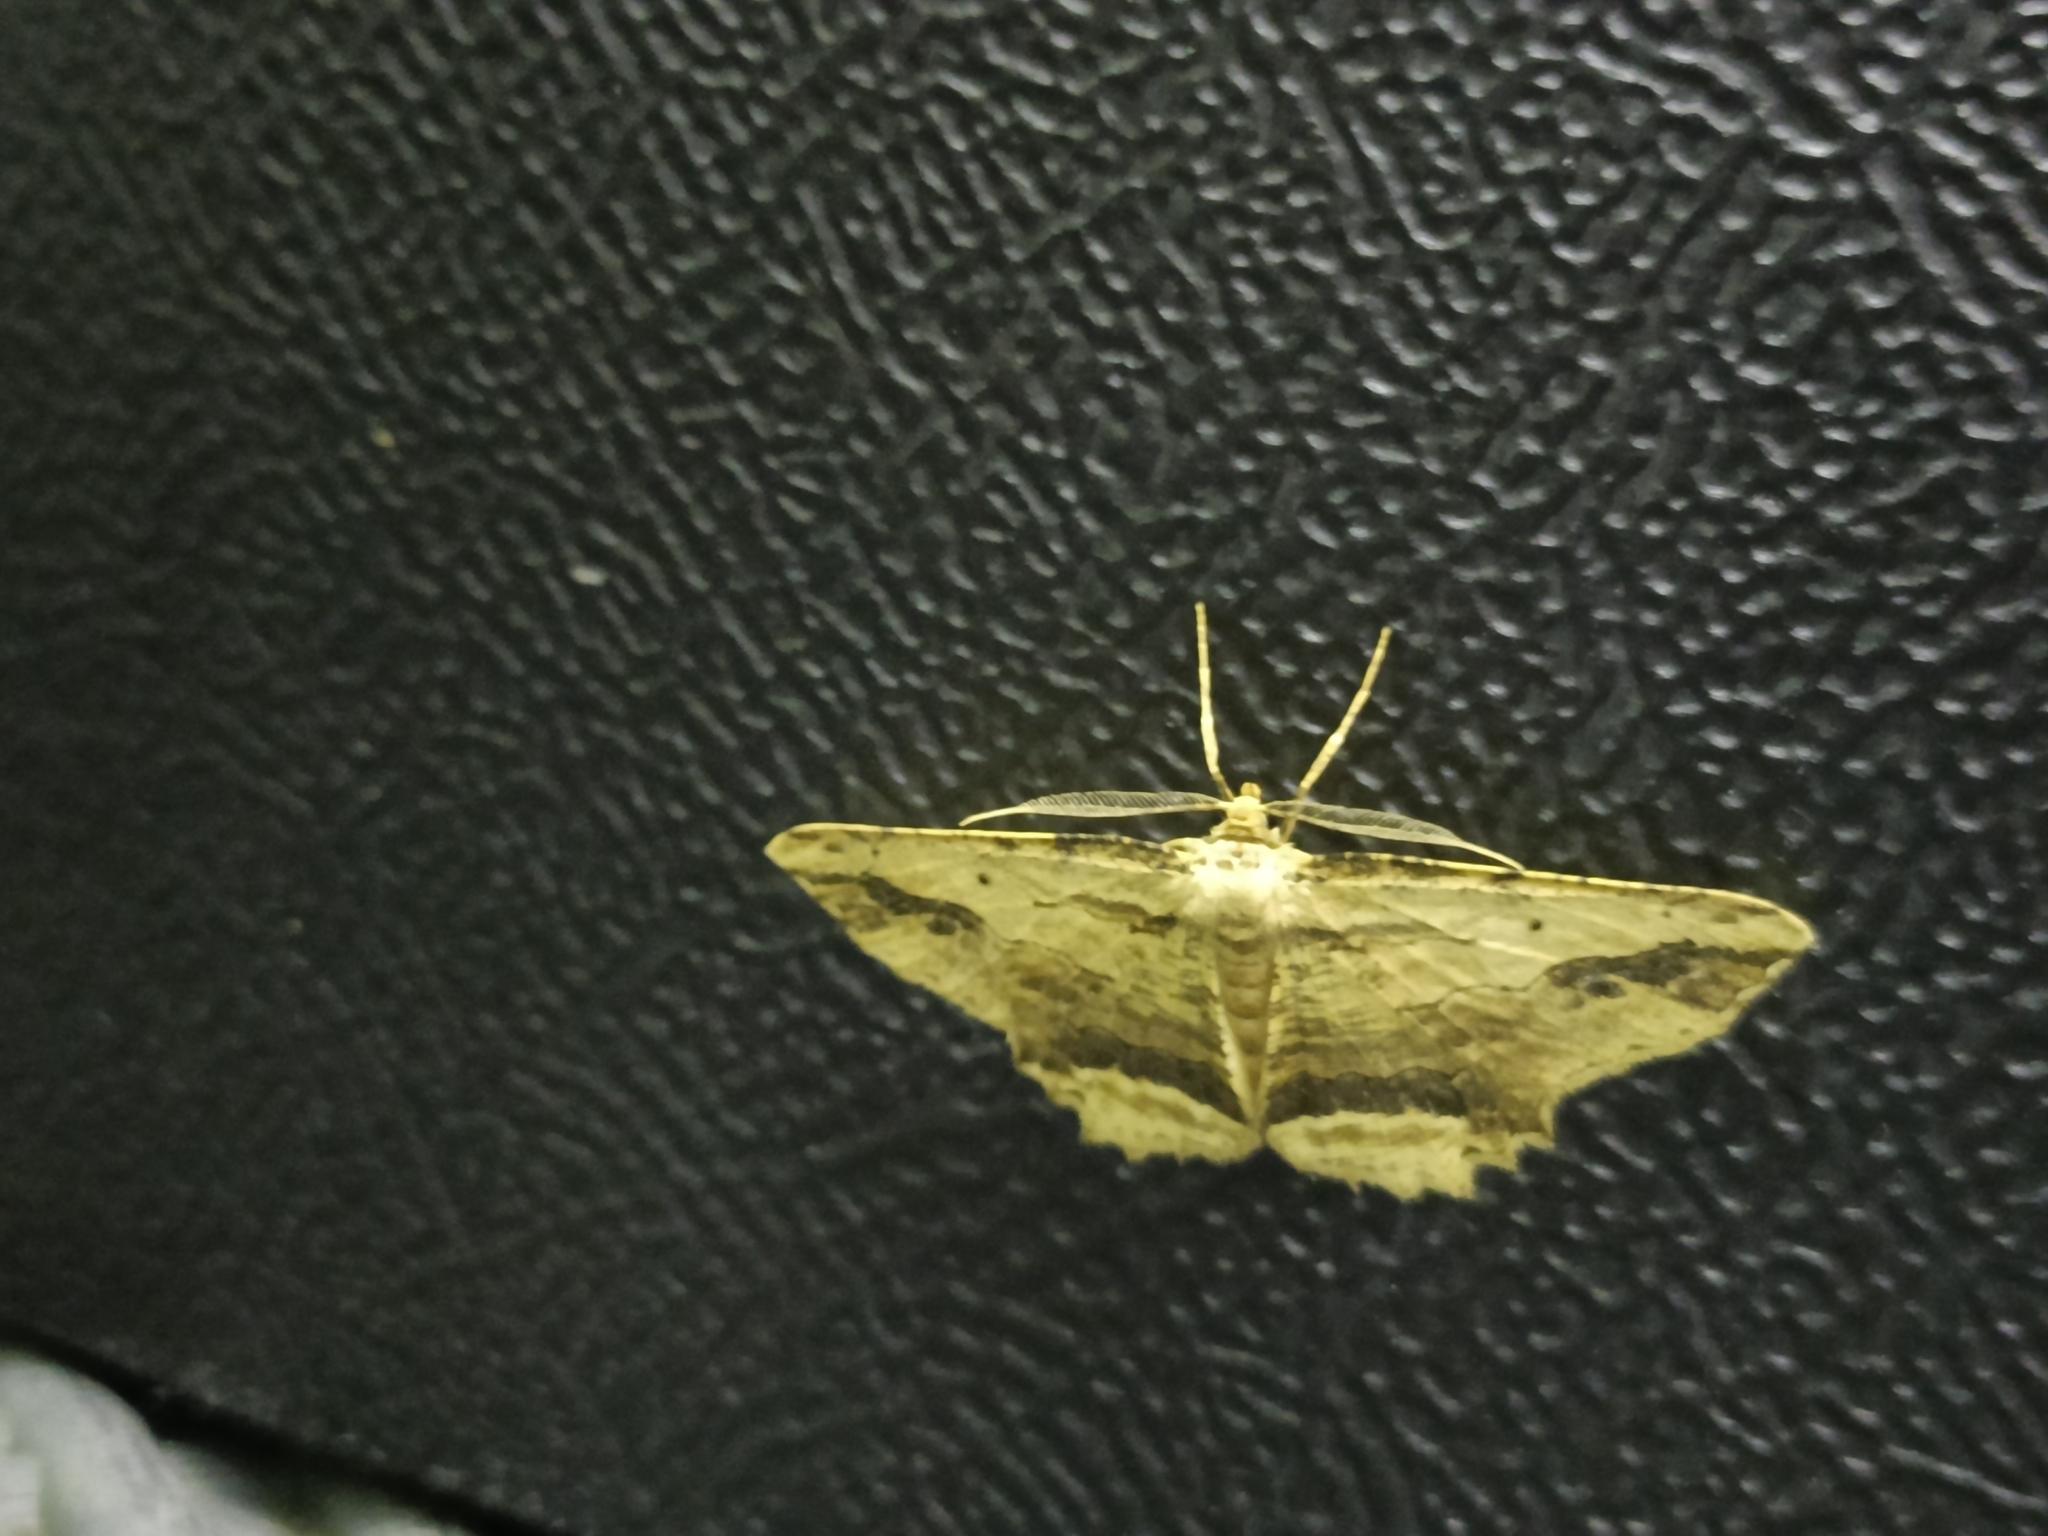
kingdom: Animalia
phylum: Arthropoda
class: Insecta
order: Lepidoptera
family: Geometridae
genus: Menophra
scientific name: Menophra abruptaria
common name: Waved umber
